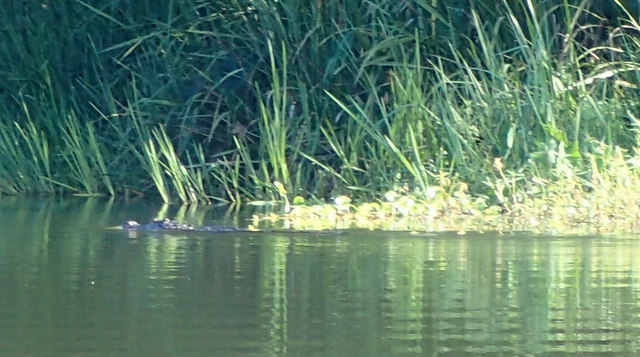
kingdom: Animalia
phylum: Chordata
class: Crocodylia
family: Alligatoridae
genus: Alligator
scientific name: Alligator mississippiensis
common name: American alligator
